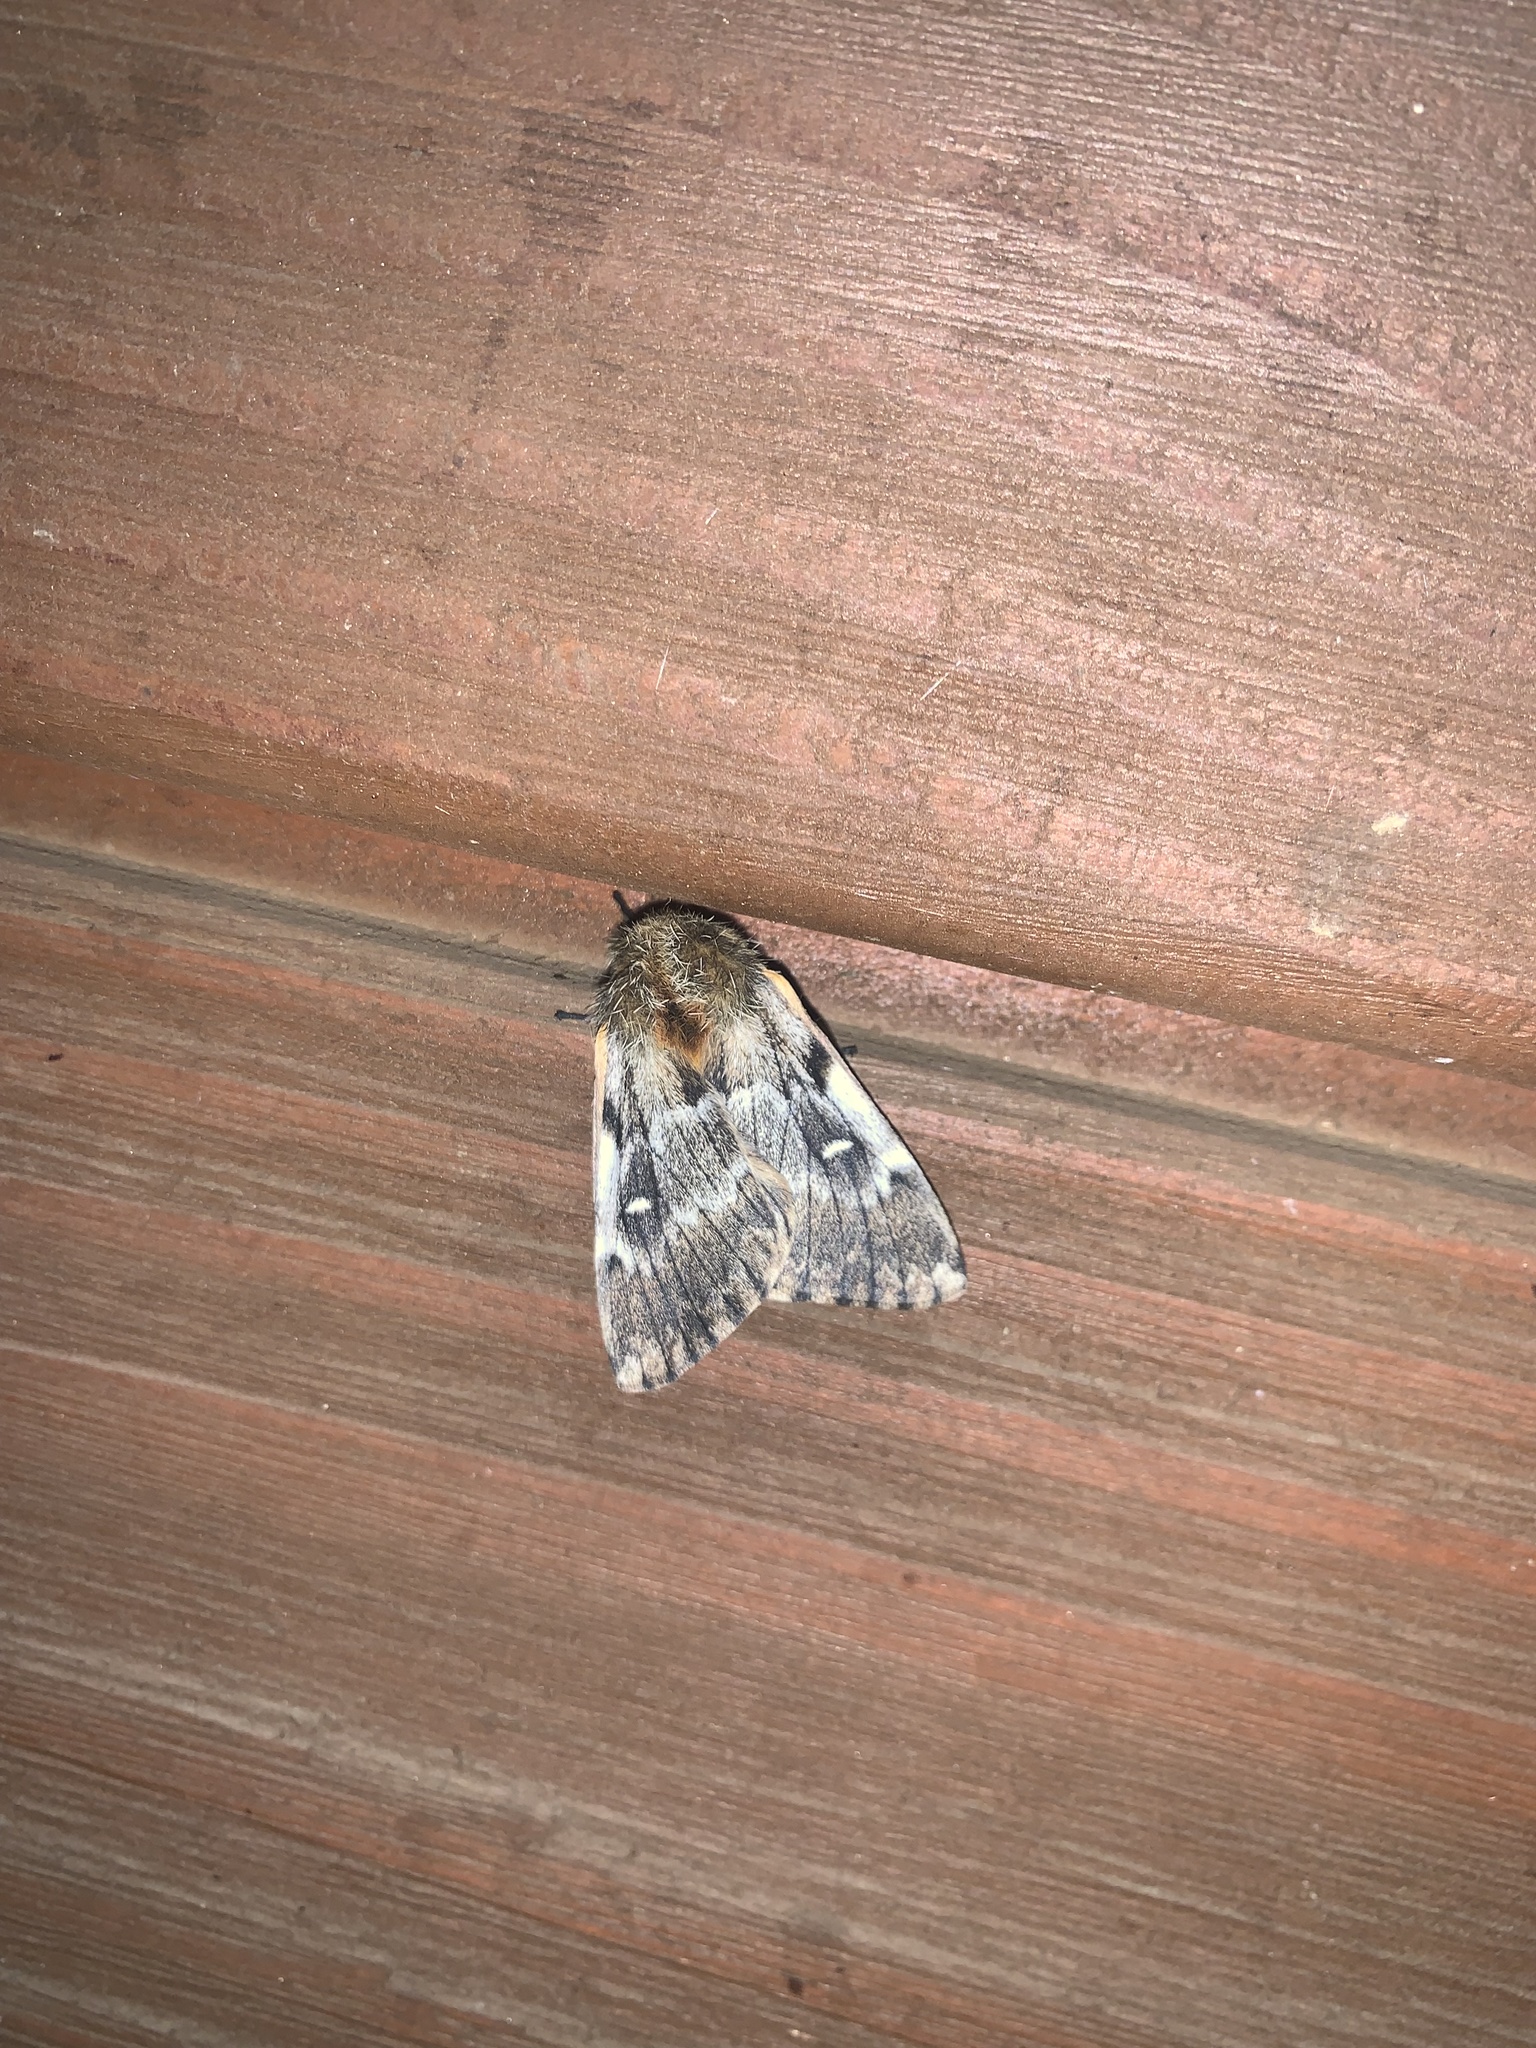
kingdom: Animalia
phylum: Arthropoda
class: Insecta
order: Lepidoptera
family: Saturniidae
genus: Ormiscodes
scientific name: Ormiscodes nigrosignata
